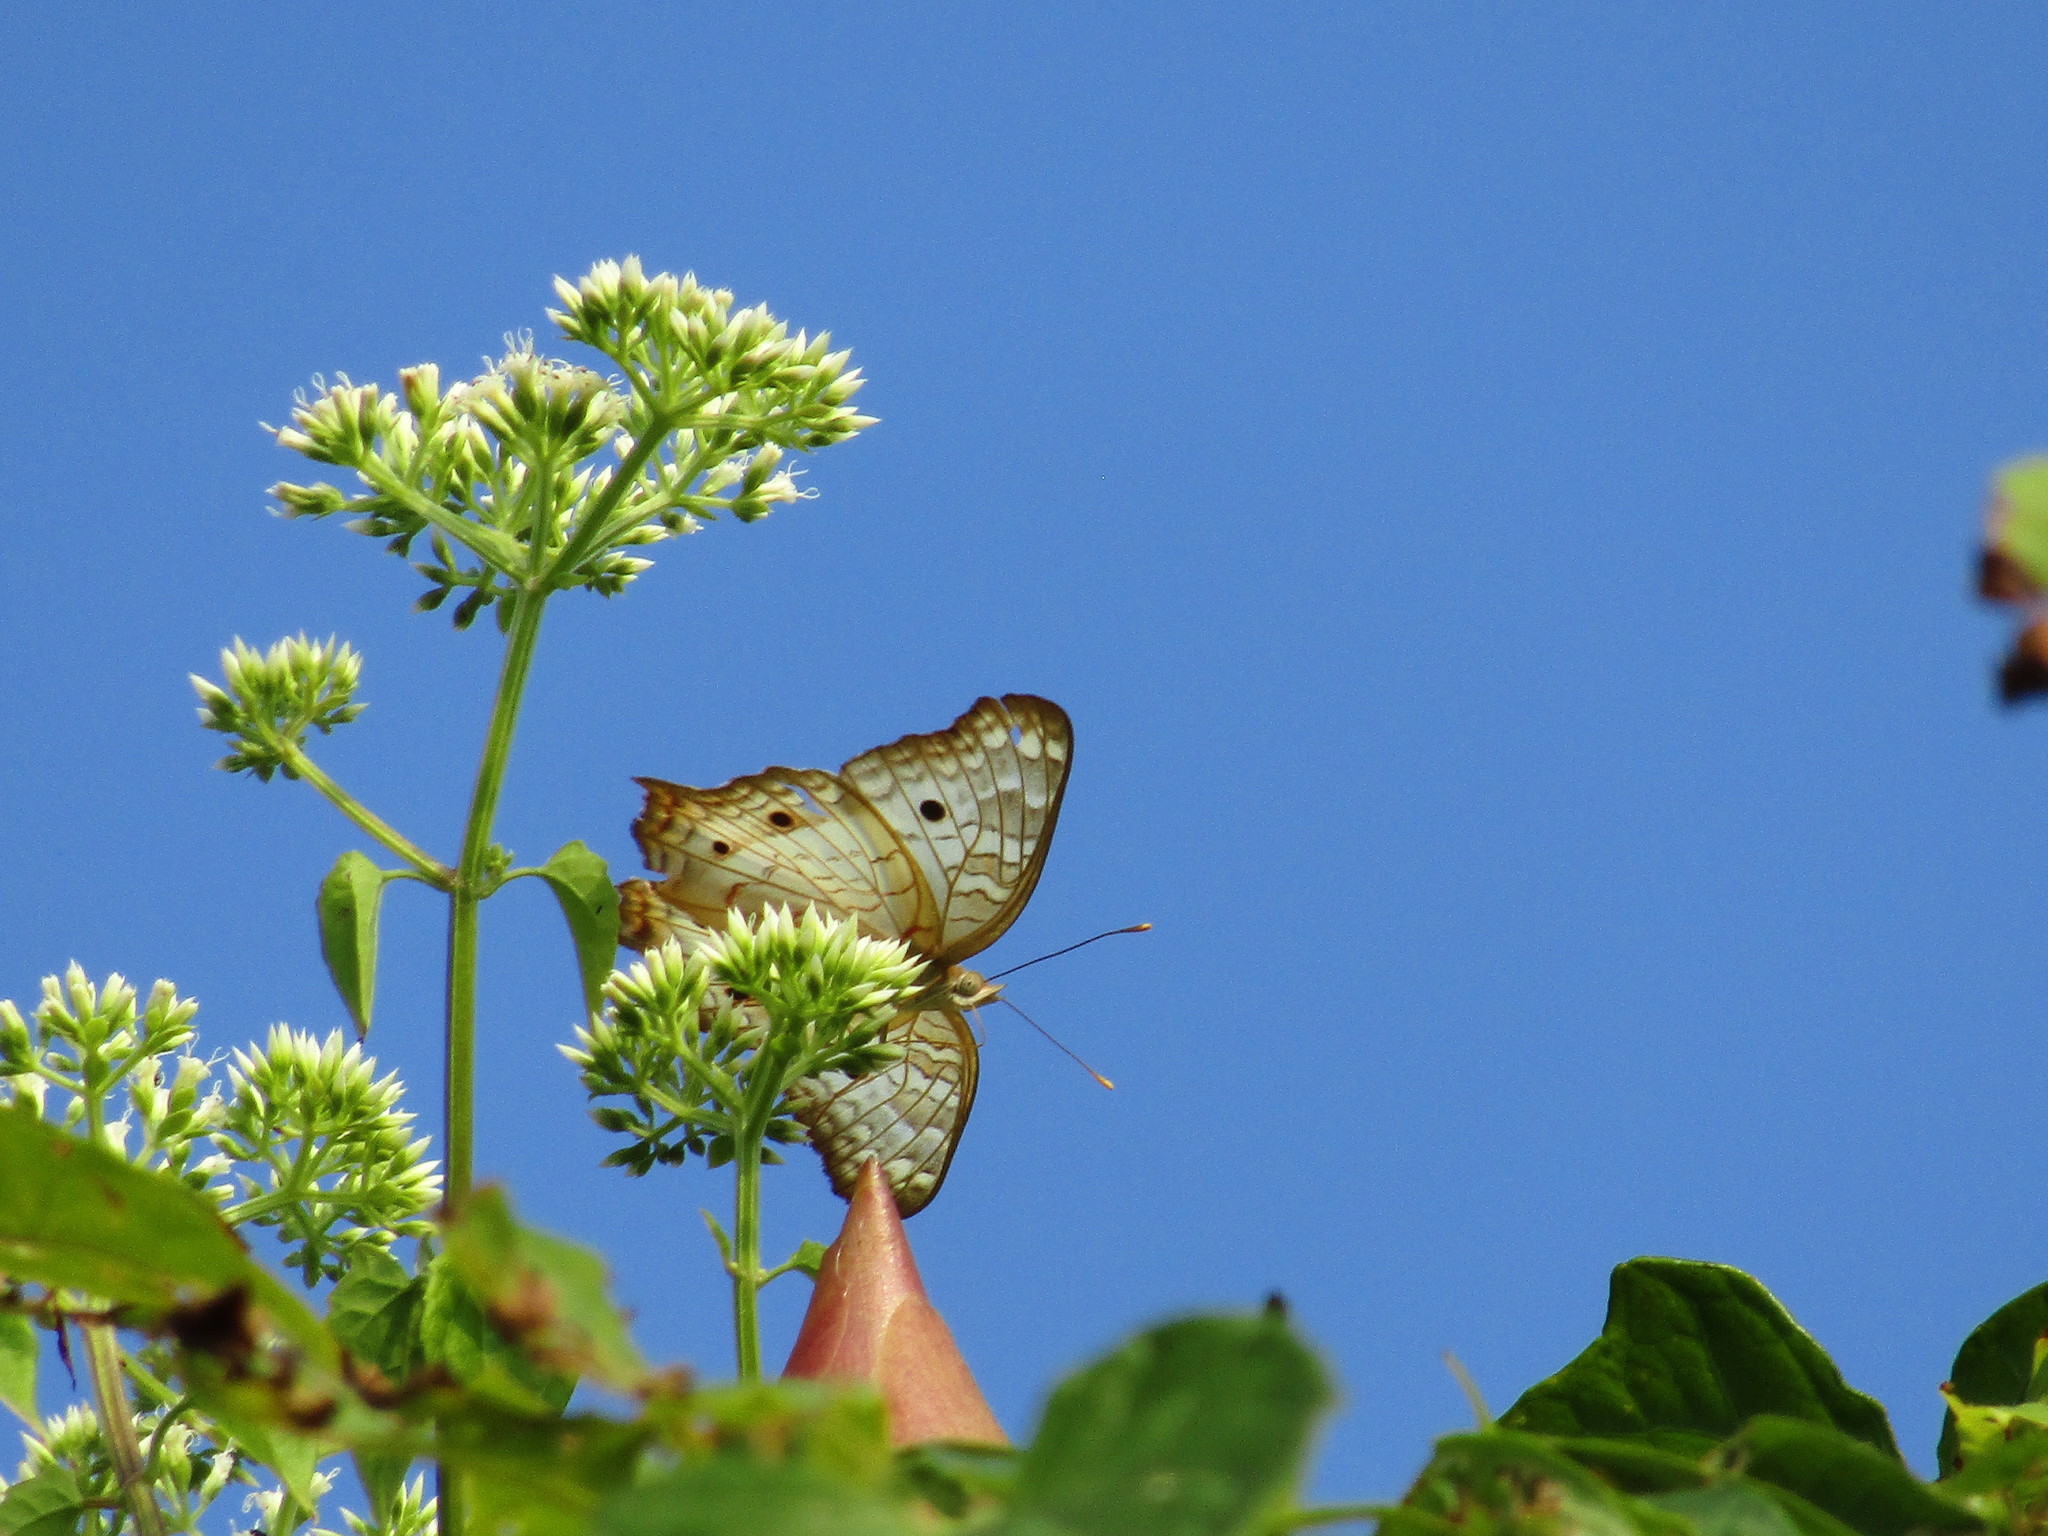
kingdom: Animalia
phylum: Arthropoda
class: Insecta
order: Lepidoptera
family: Nymphalidae
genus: Anartia
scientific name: Anartia jatrophae
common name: White peacock
